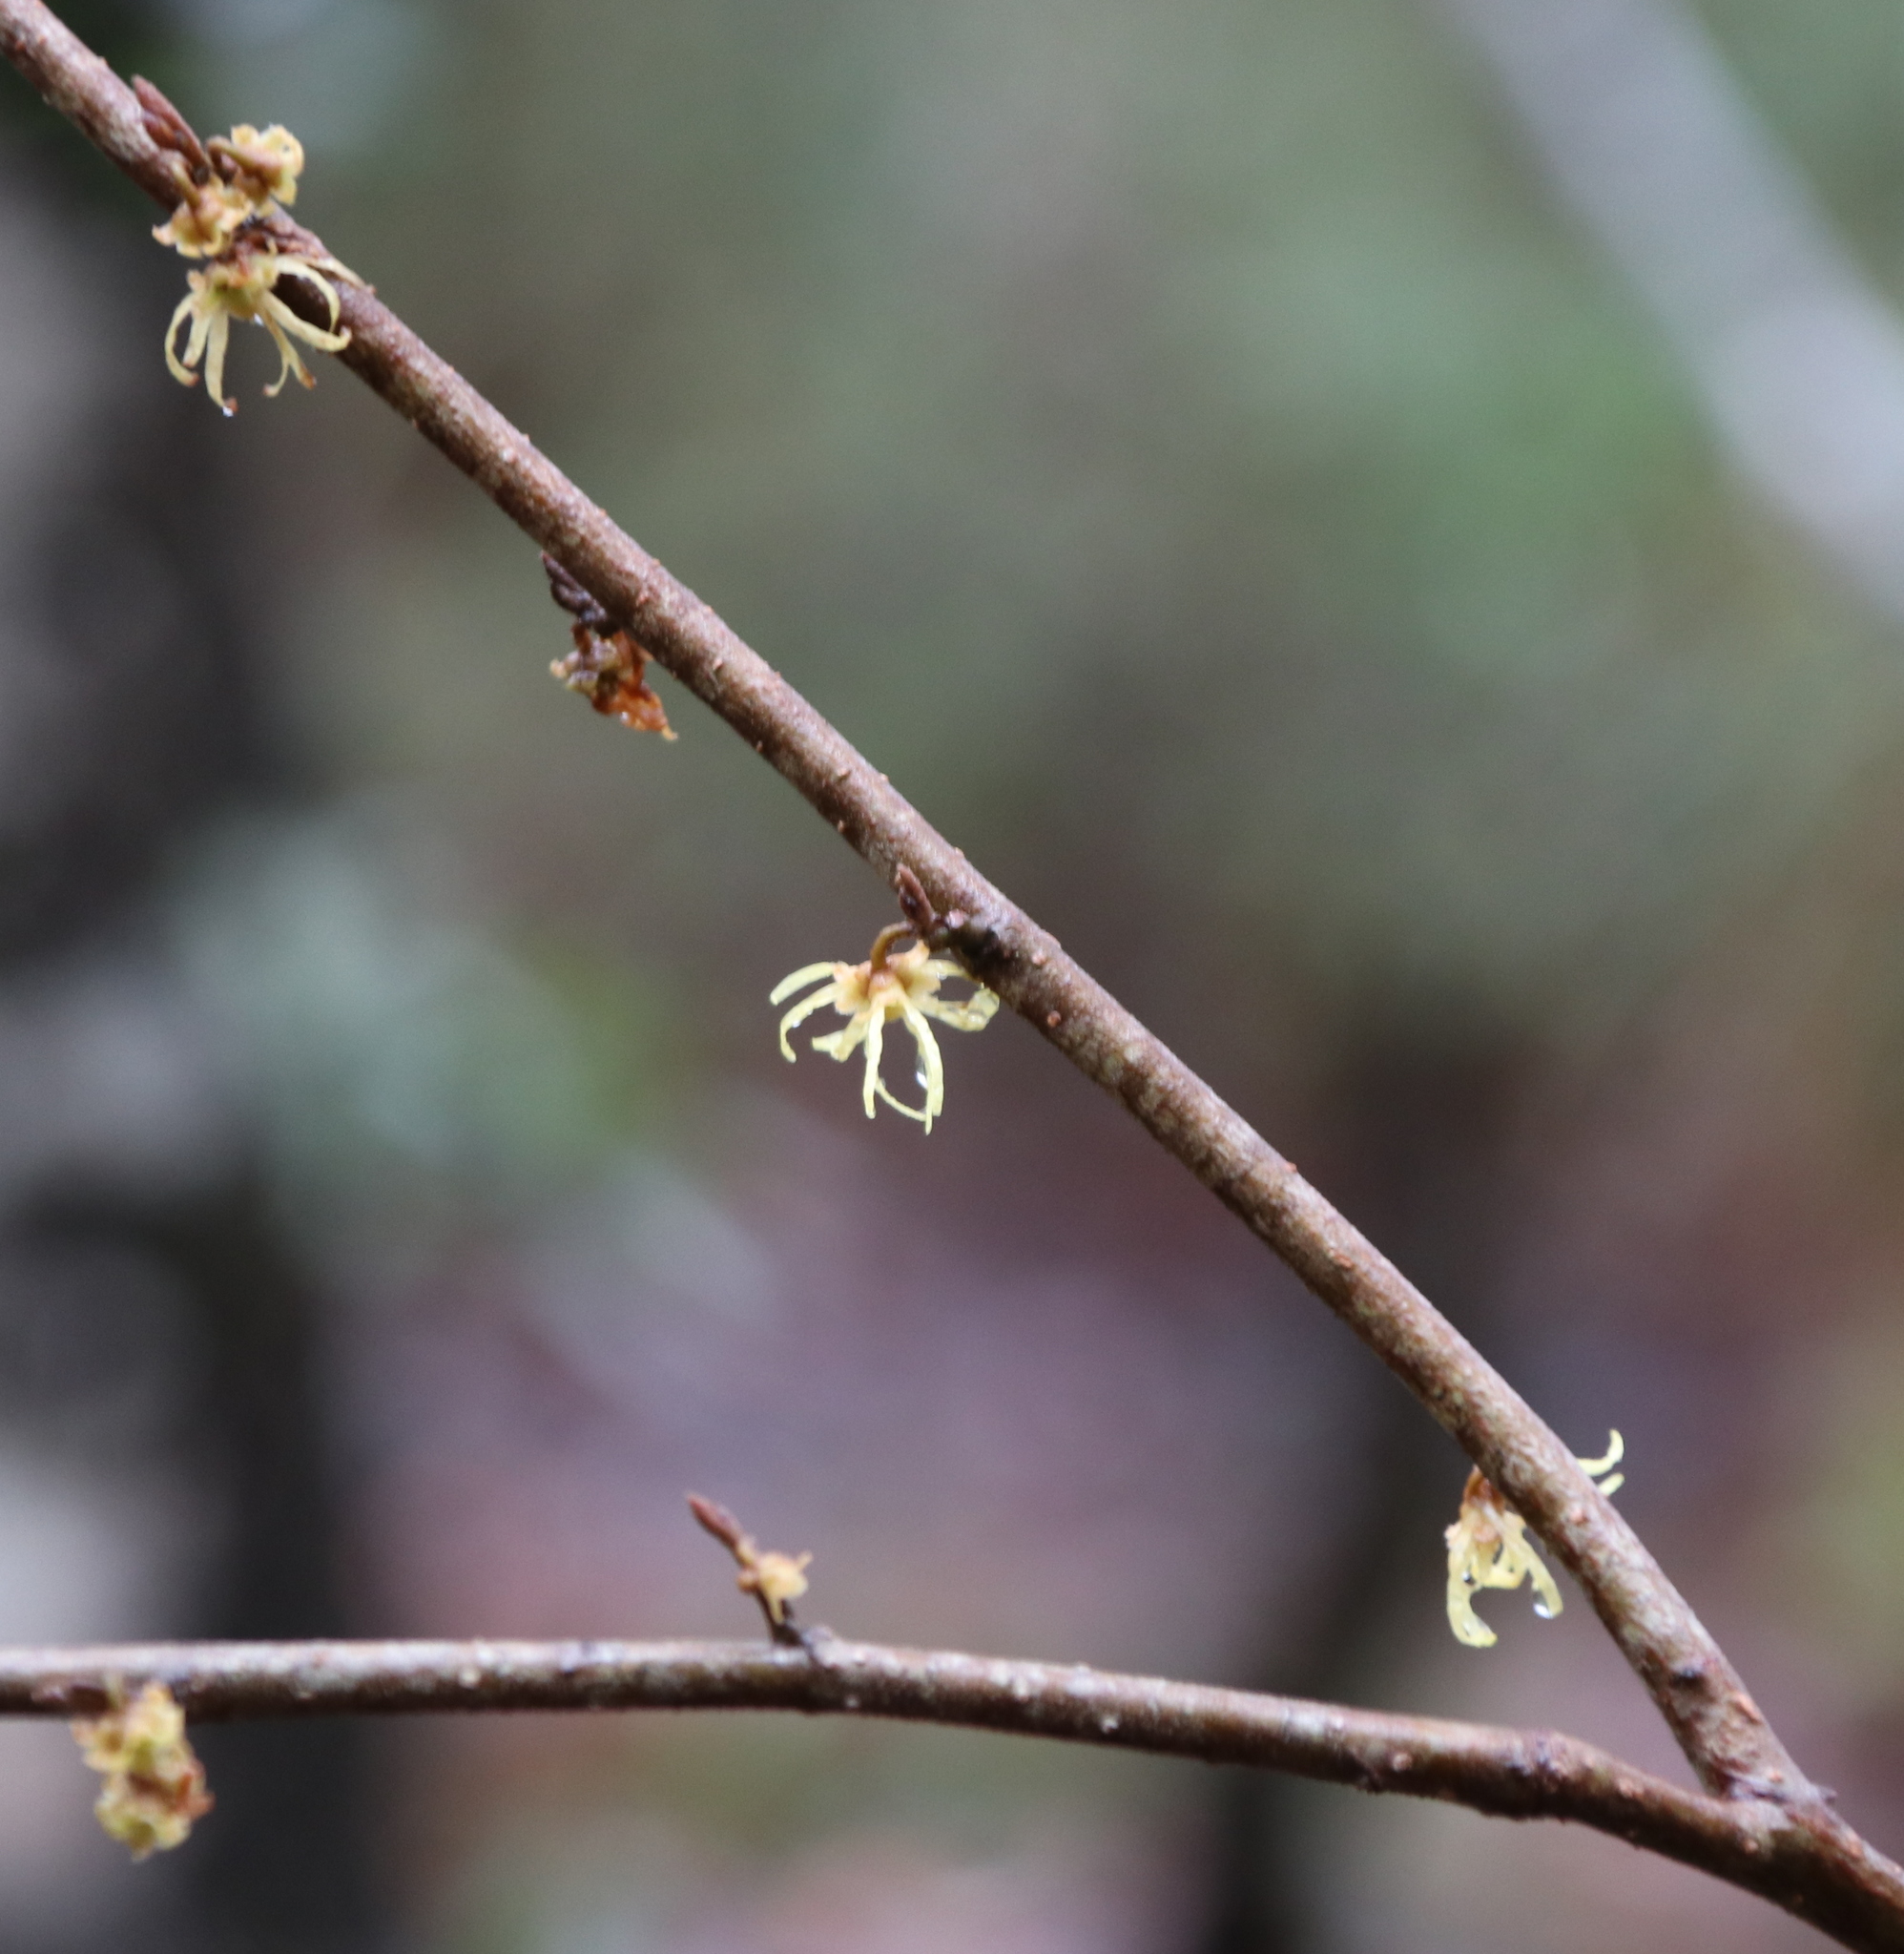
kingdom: Plantae
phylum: Tracheophyta
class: Magnoliopsida
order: Saxifragales
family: Hamamelidaceae
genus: Hamamelis
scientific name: Hamamelis virginiana
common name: Witch-hazel
